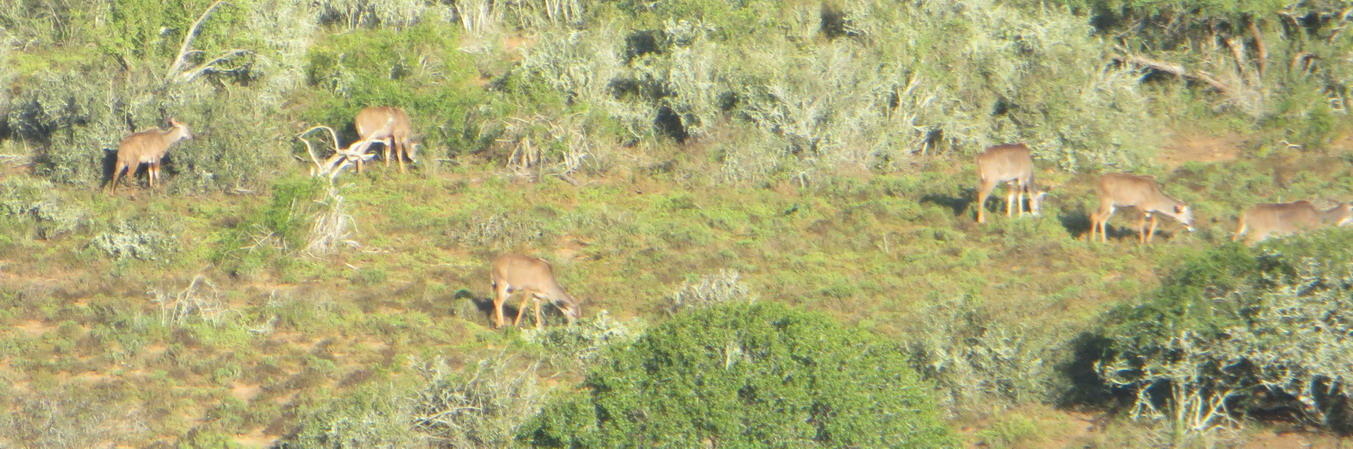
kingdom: Animalia
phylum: Chordata
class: Mammalia
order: Artiodactyla
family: Bovidae
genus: Tragelaphus
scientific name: Tragelaphus strepsiceros
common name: Greater kudu
